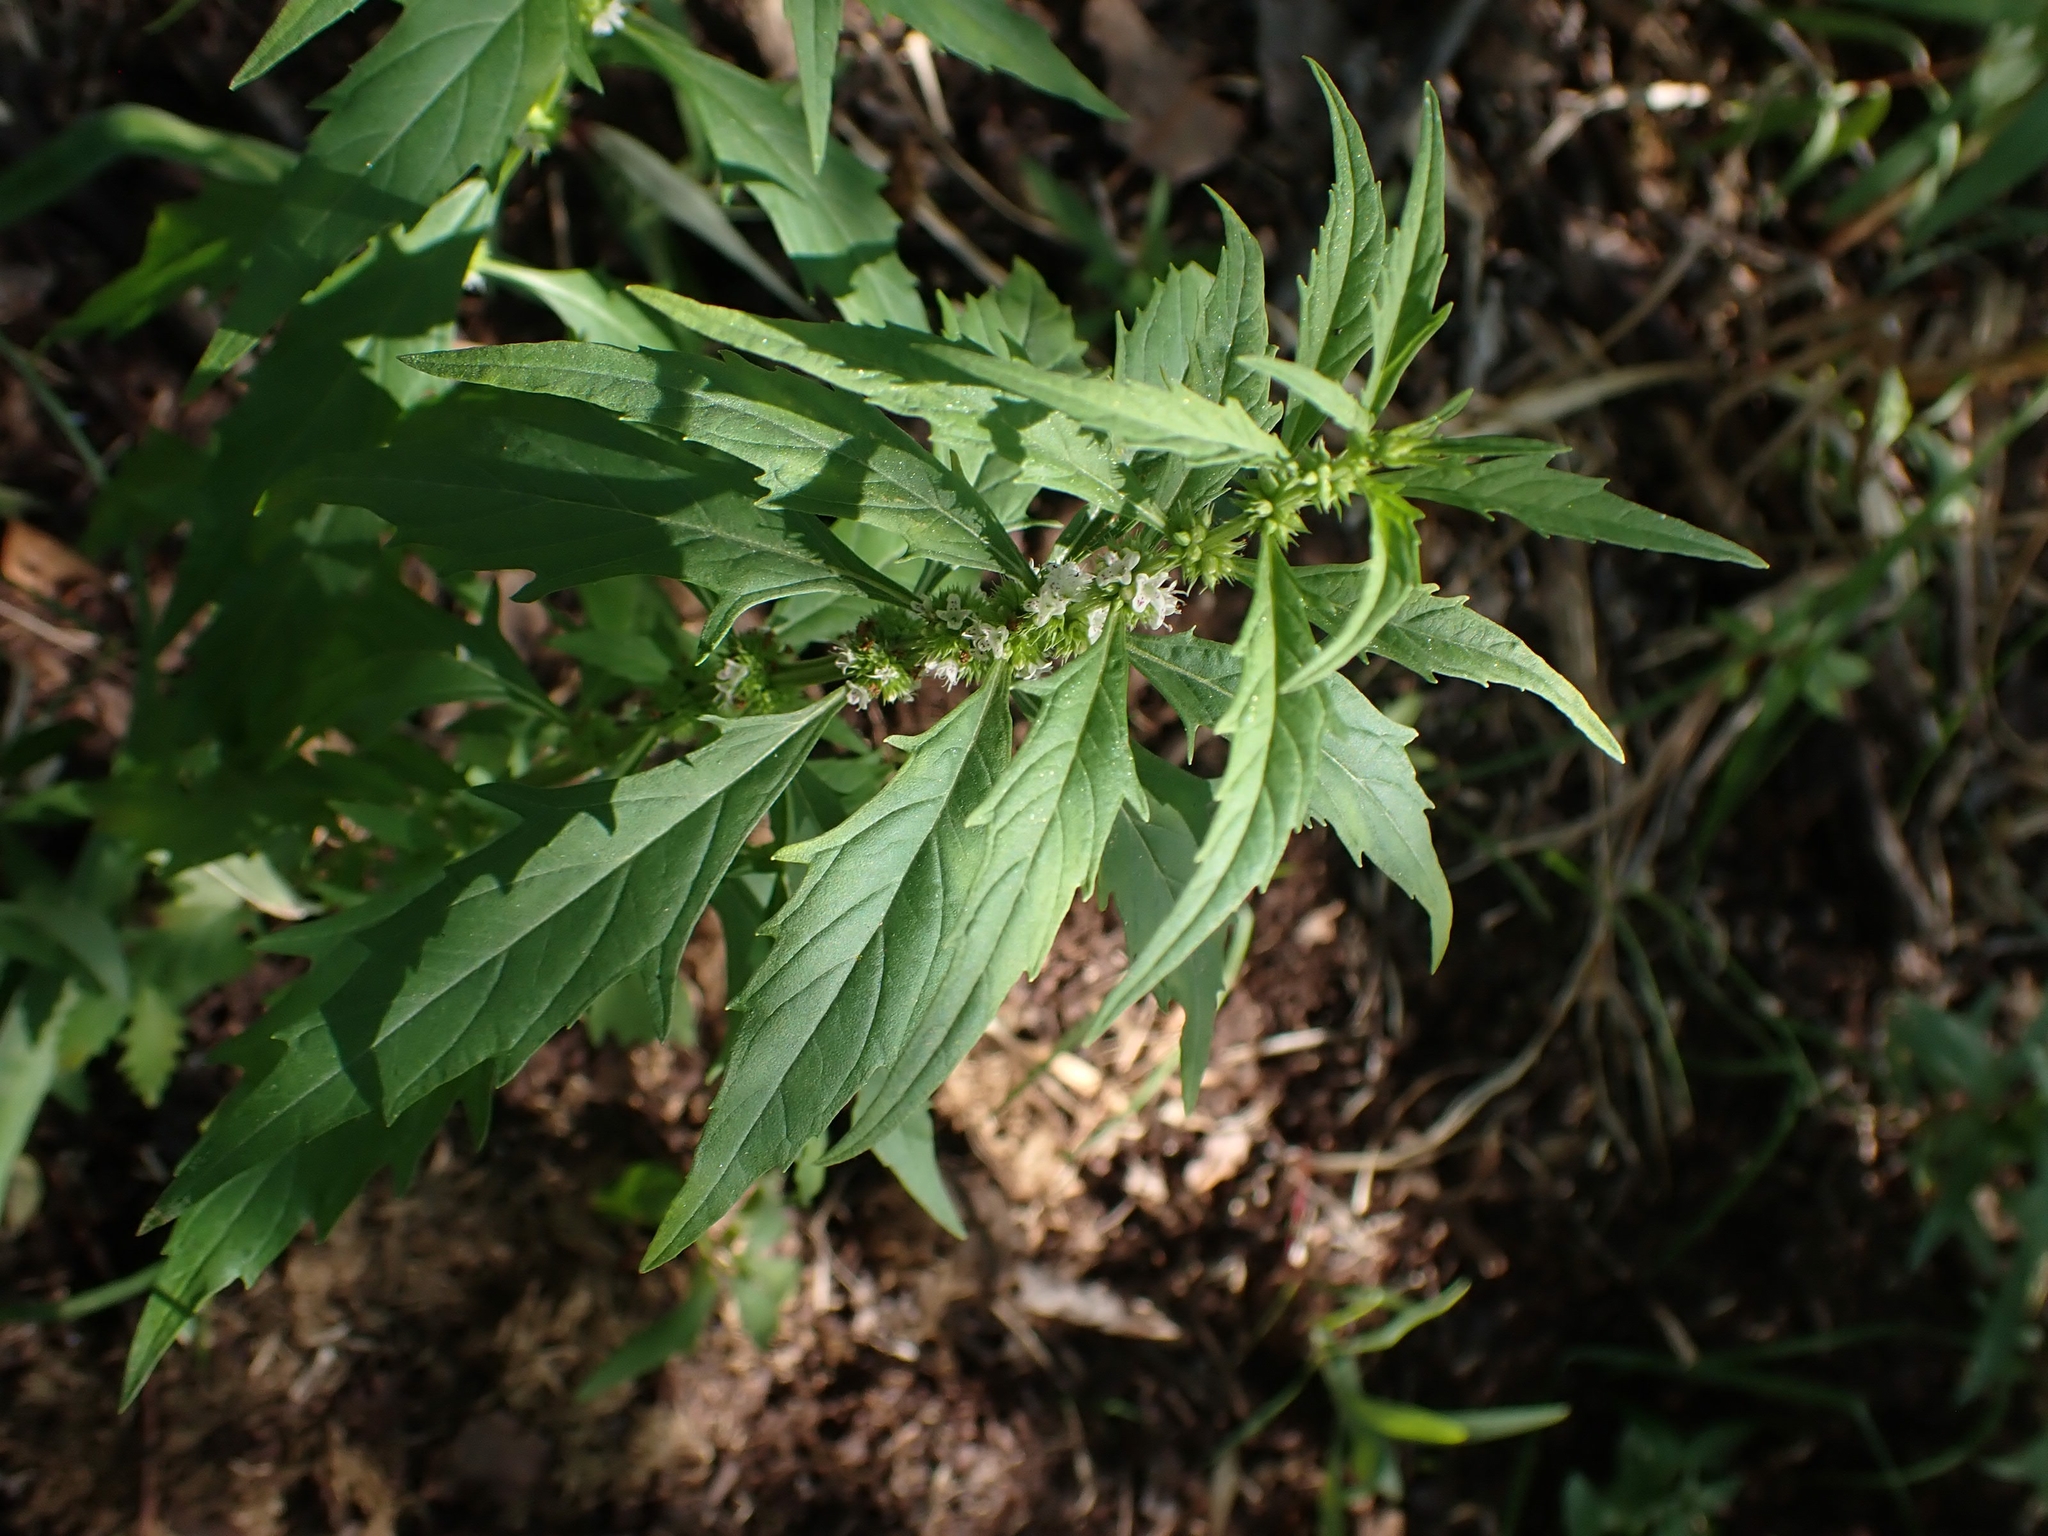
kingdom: Plantae
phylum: Tracheophyta
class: Magnoliopsida
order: Lamiales
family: Lamiaceae
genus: Lycopus
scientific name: Lycopus uniflorus
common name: Northern bugleweed
